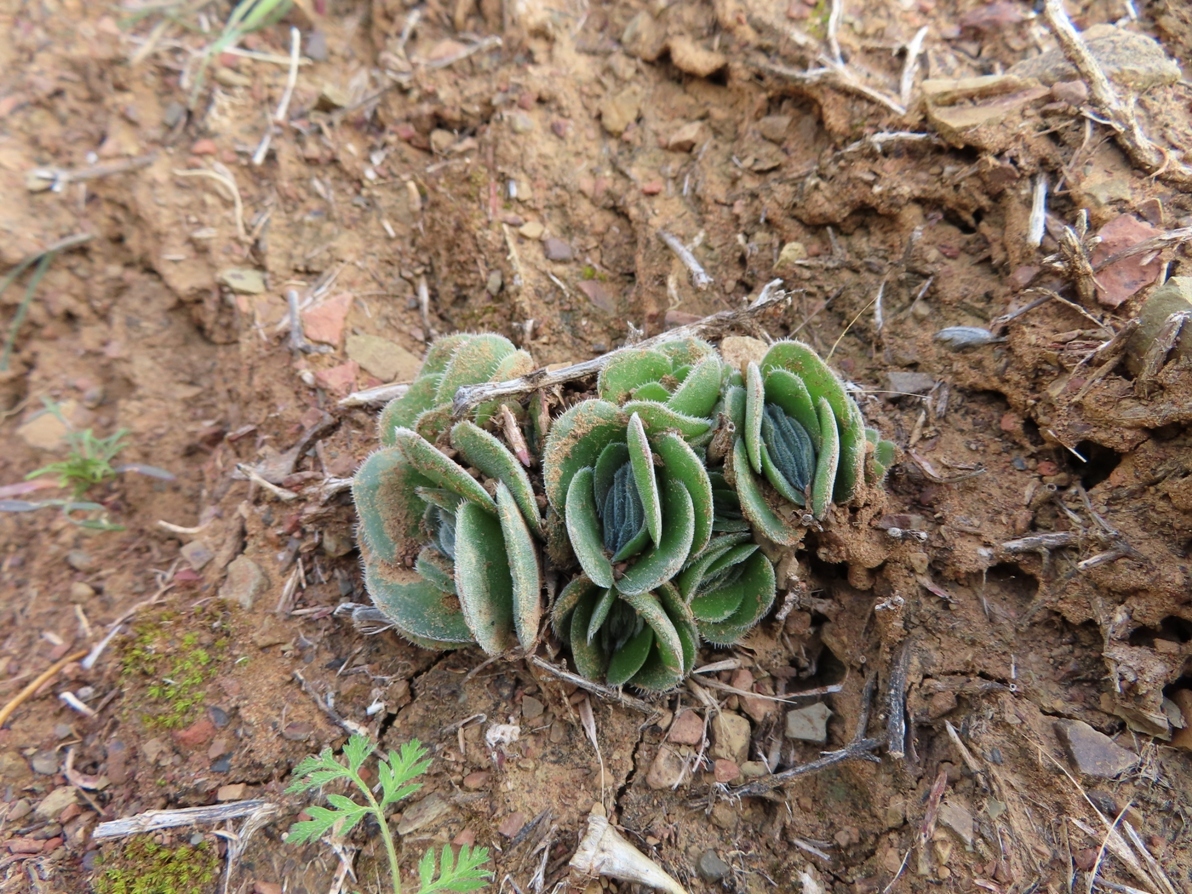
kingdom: Plantae
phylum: Tracheophyta
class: Magnoliopsida
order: Saxifragales
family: Crassulaceae
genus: Crassula
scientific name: Crassula tomentosa
